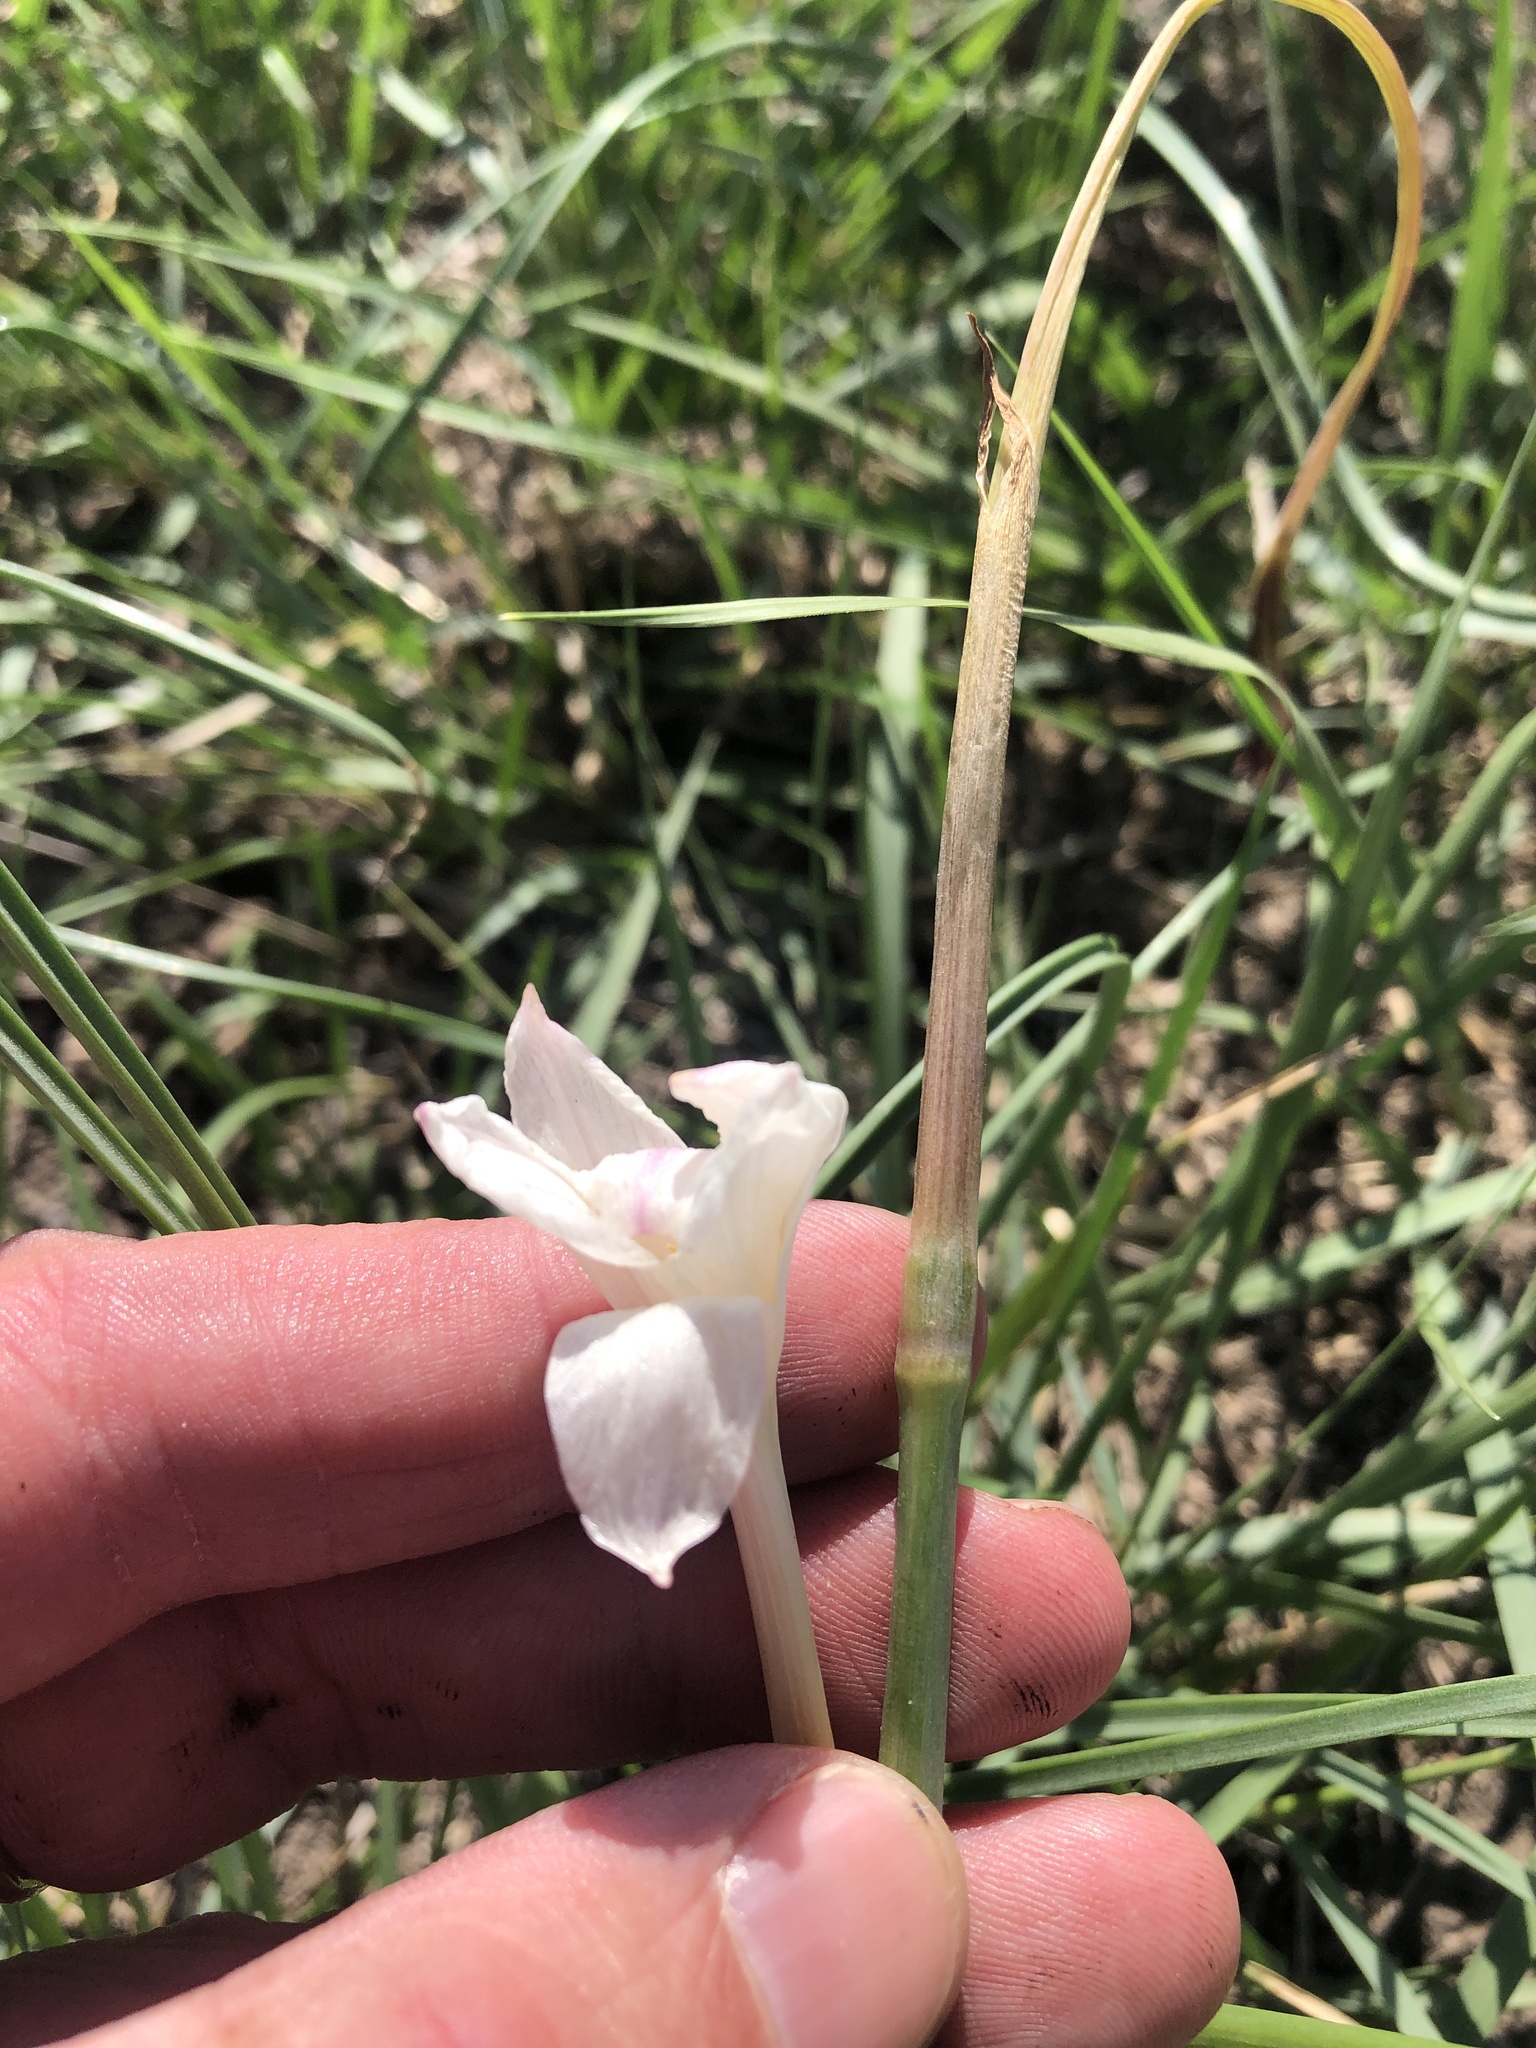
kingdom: Plantae
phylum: Tracheophyta
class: Liliopsida
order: Asparagales
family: Amaryllidaceae
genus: Zephyranthes
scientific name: Zephyranthes chlorosolen
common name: Evening rain-lily
